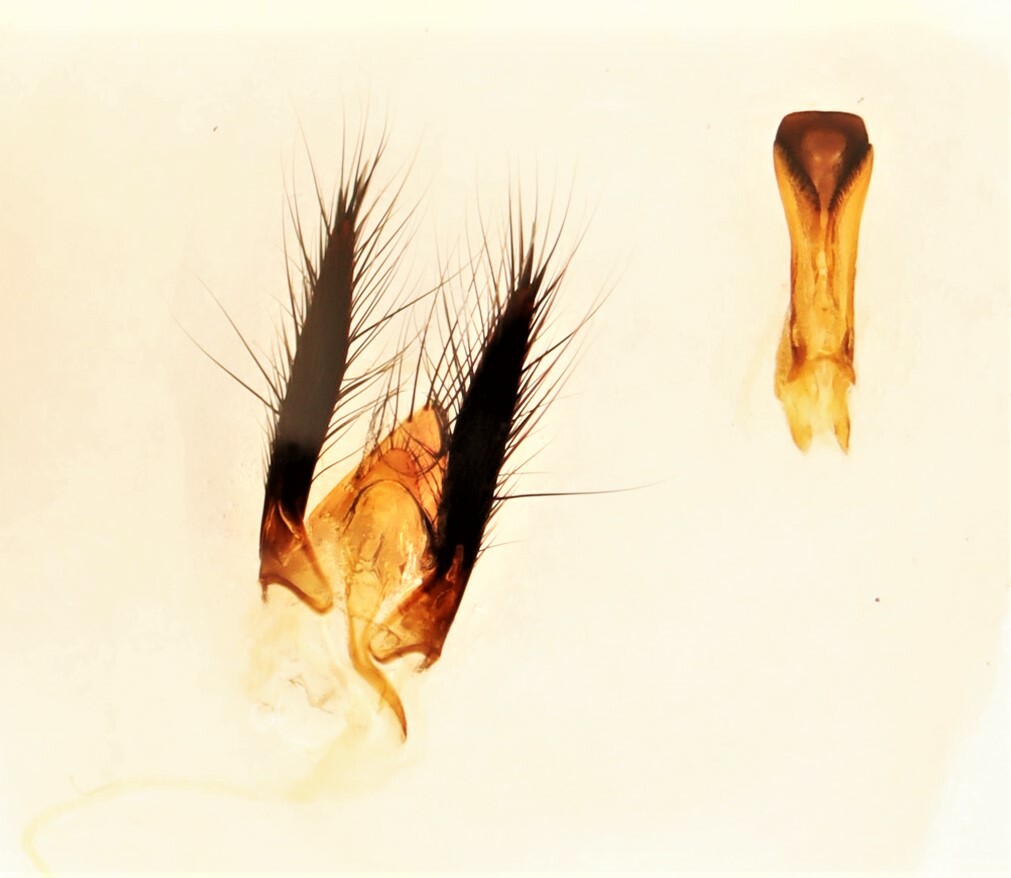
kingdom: Animalia
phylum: Arthropoda
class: Insecta
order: Coleoptera
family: Staphylinidae
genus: Acylophorus
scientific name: Acylophorus pronus
